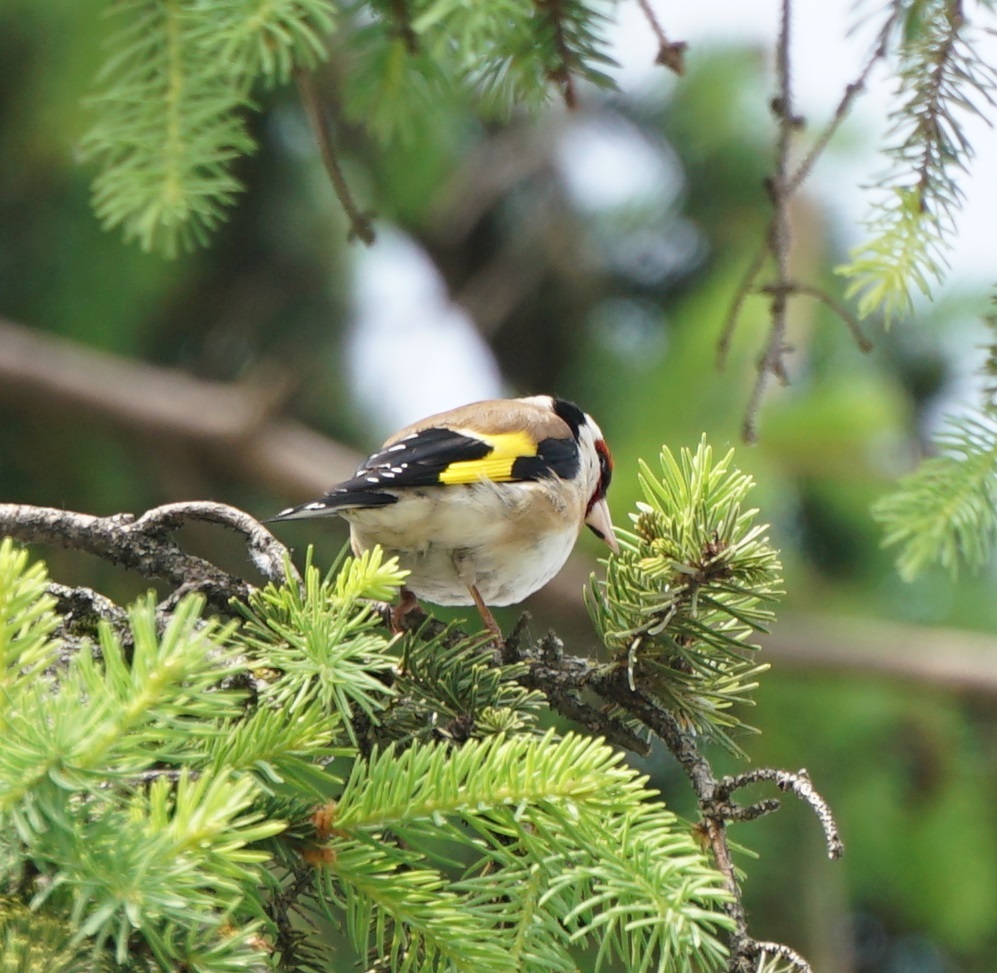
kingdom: Animalia
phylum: Chordata
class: Aves
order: Passeriformes
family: Fringillidae
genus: Carduelis
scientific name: Carduelis carduelis
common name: European goldfinch
